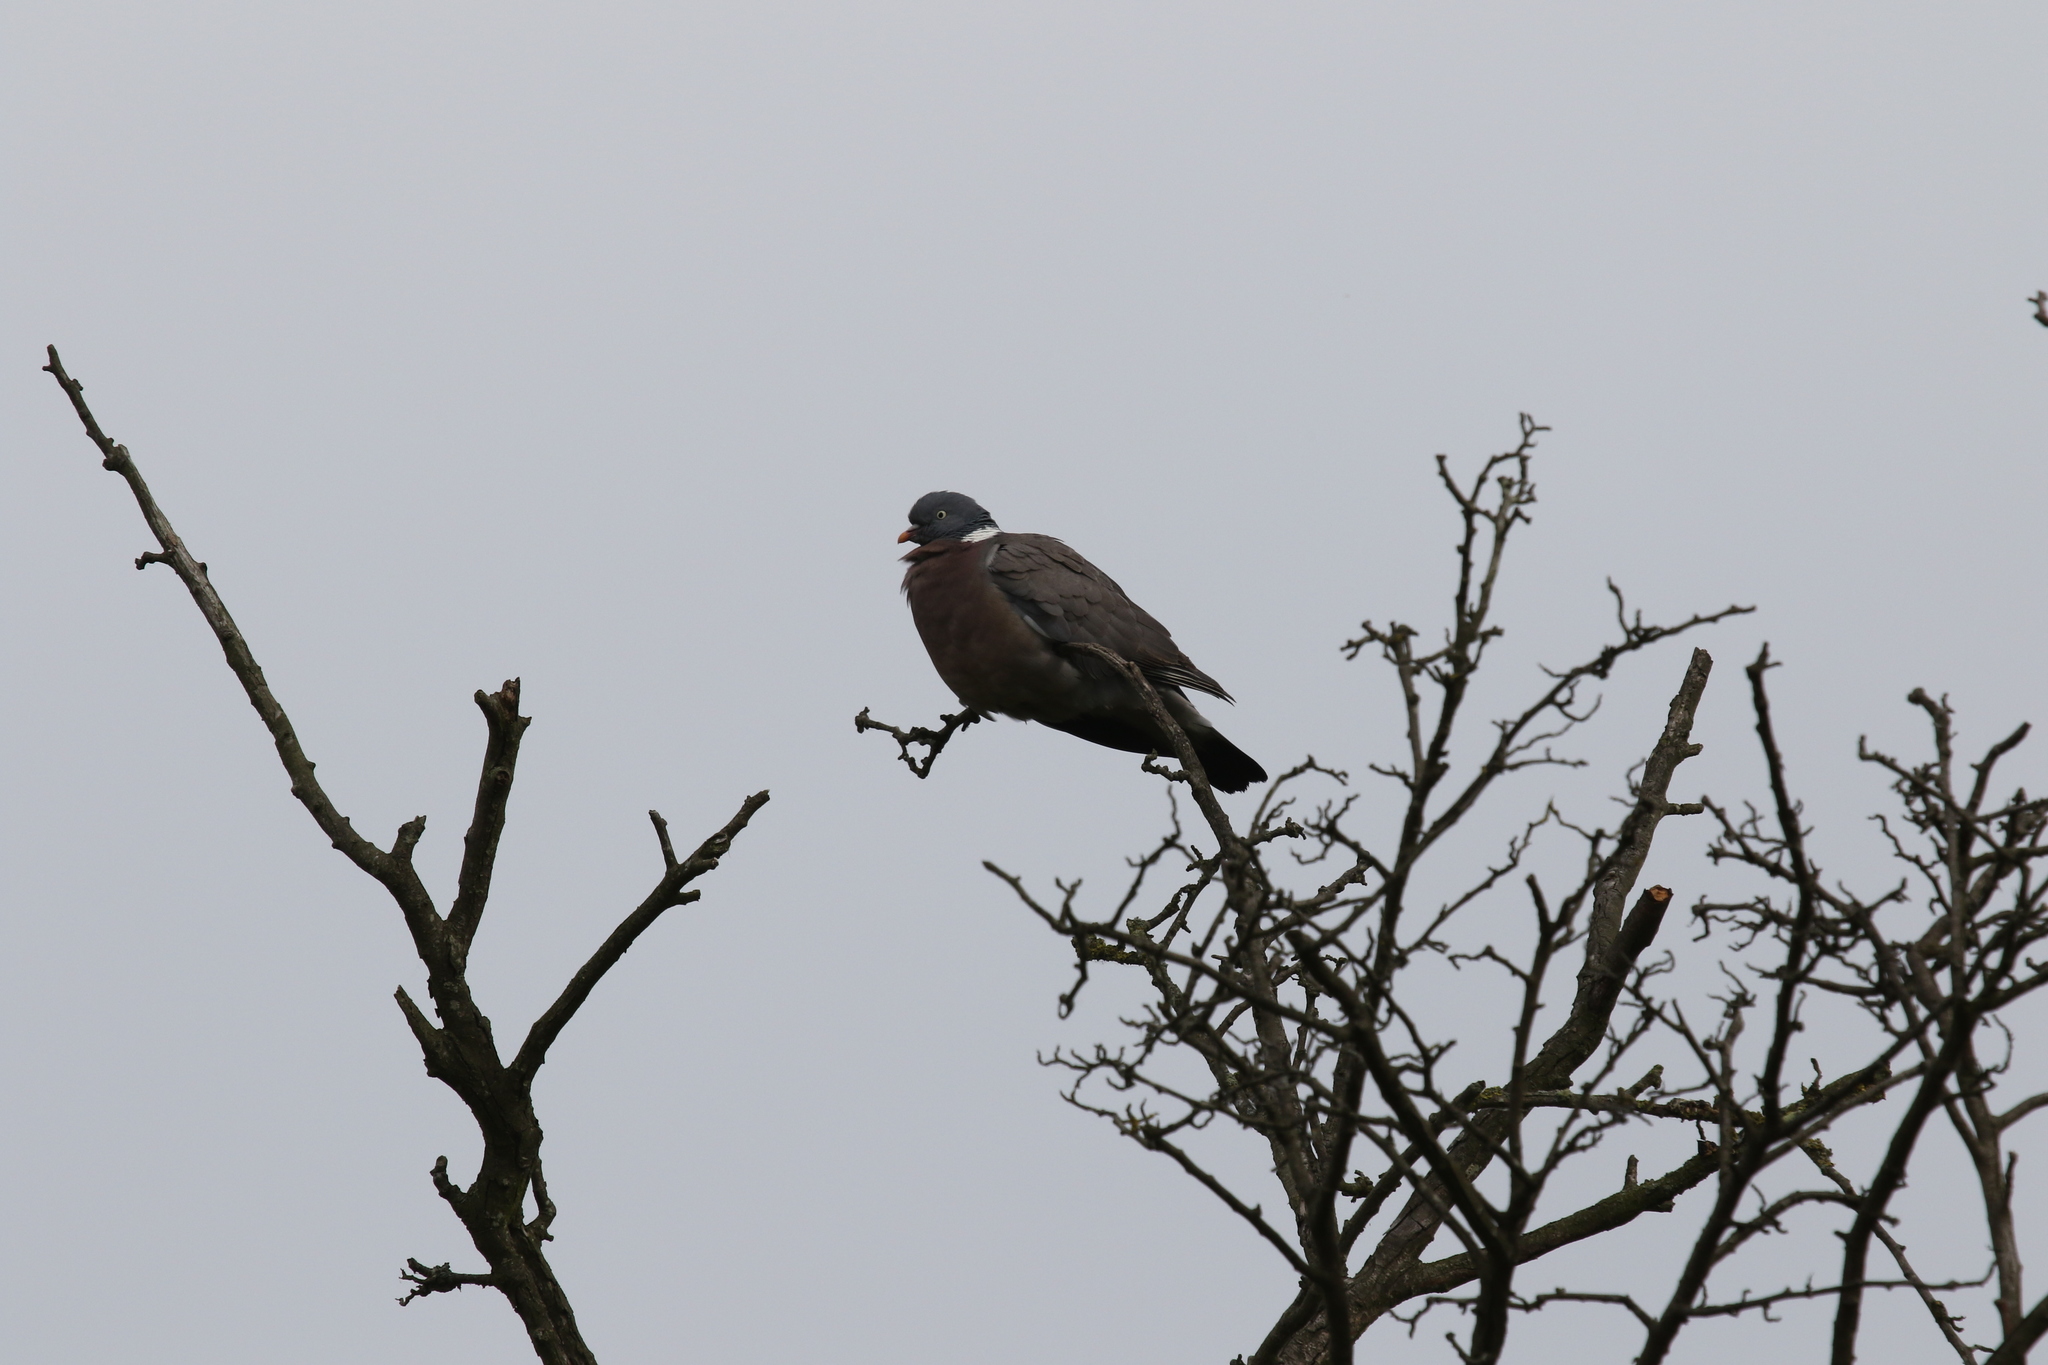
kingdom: Animalia
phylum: Chordata
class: Aves
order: Columbiformes
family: Columbidae
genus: Columba
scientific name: Columba palumbus
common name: Common wood pigeon
